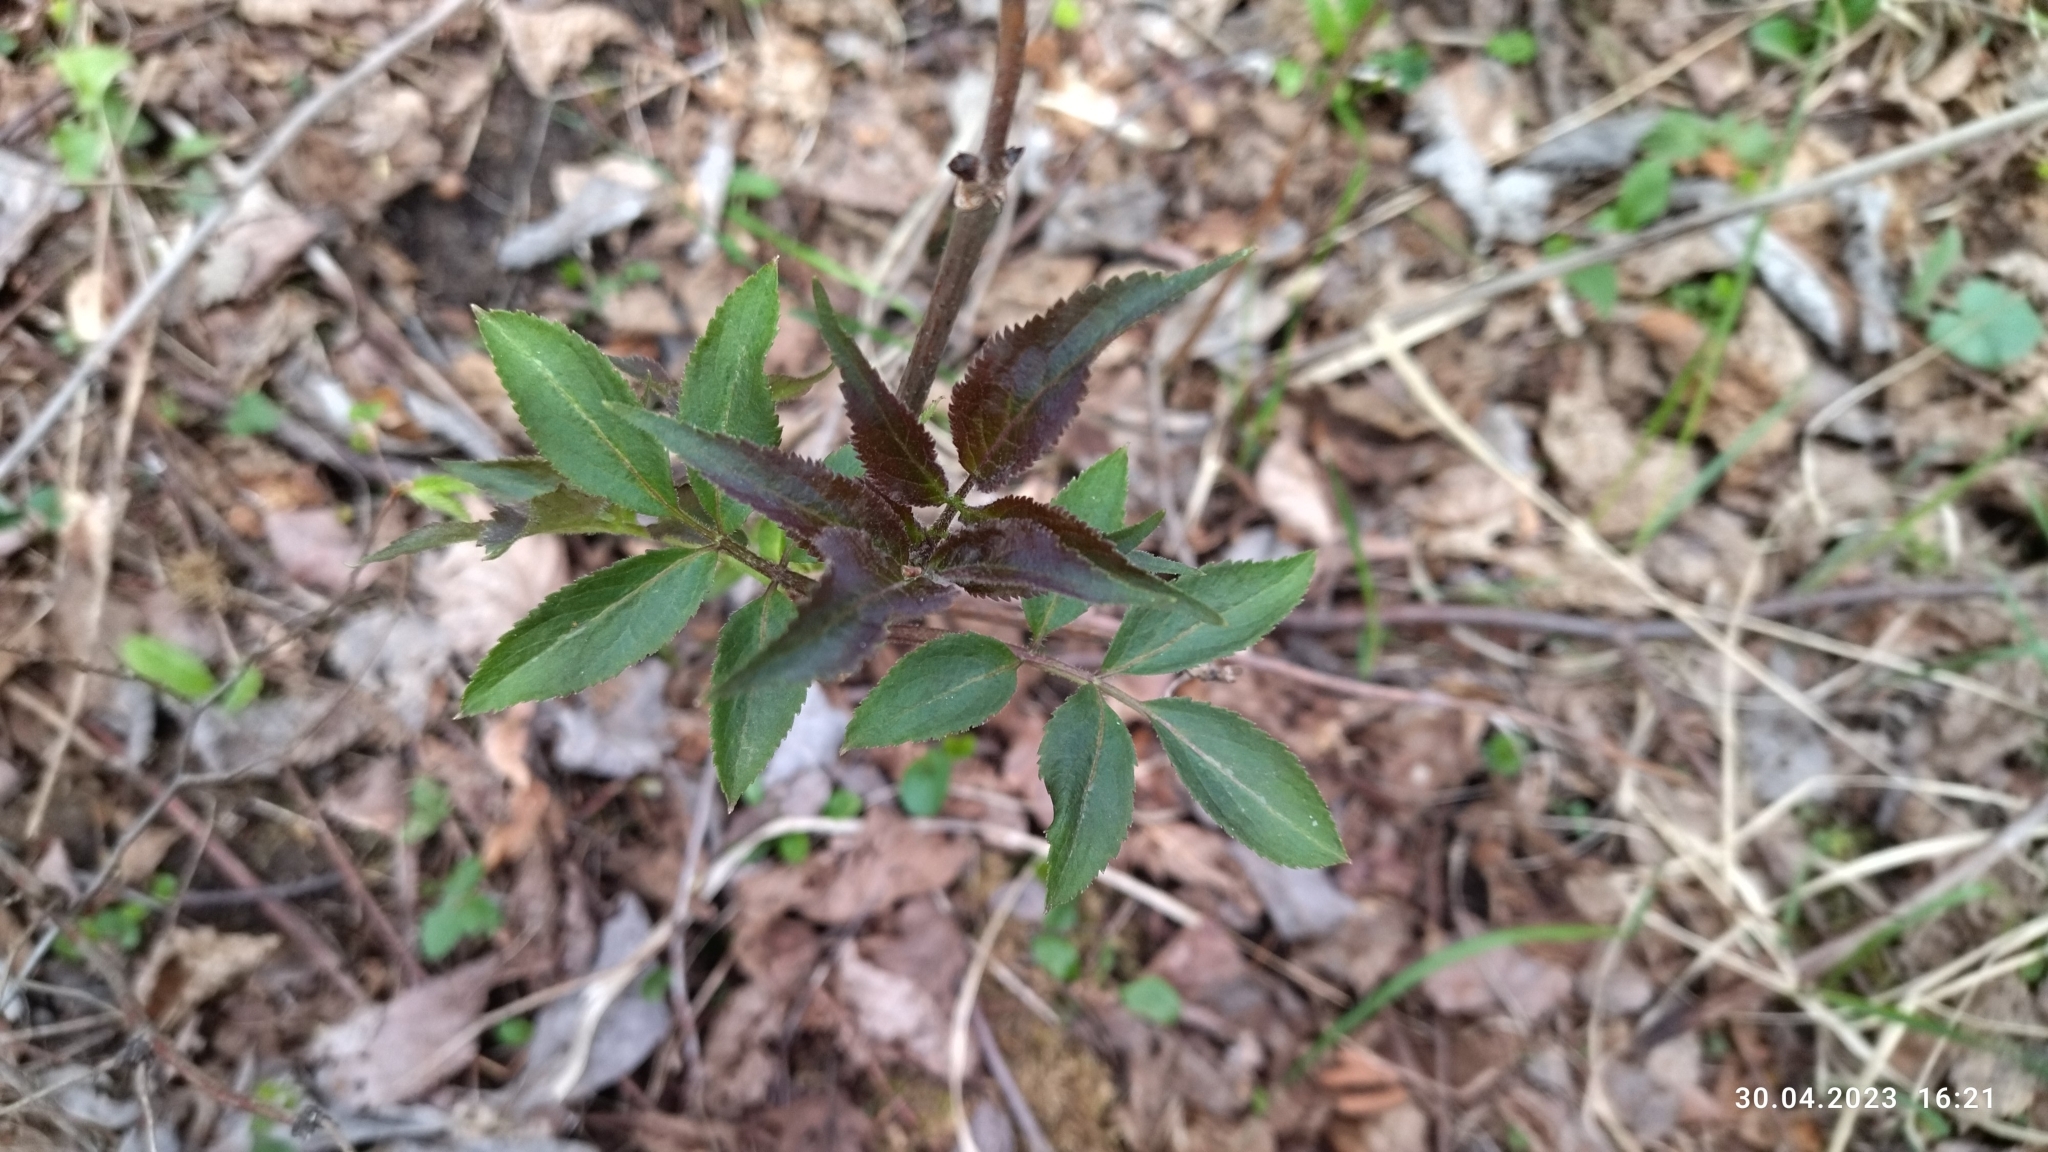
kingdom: Plantae
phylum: Tracheophyta
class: Magnoliopsida
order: Dipsacales
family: Viburnaceae
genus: Sambucus
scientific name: Sambucus racemosa
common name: Red-berried elder
